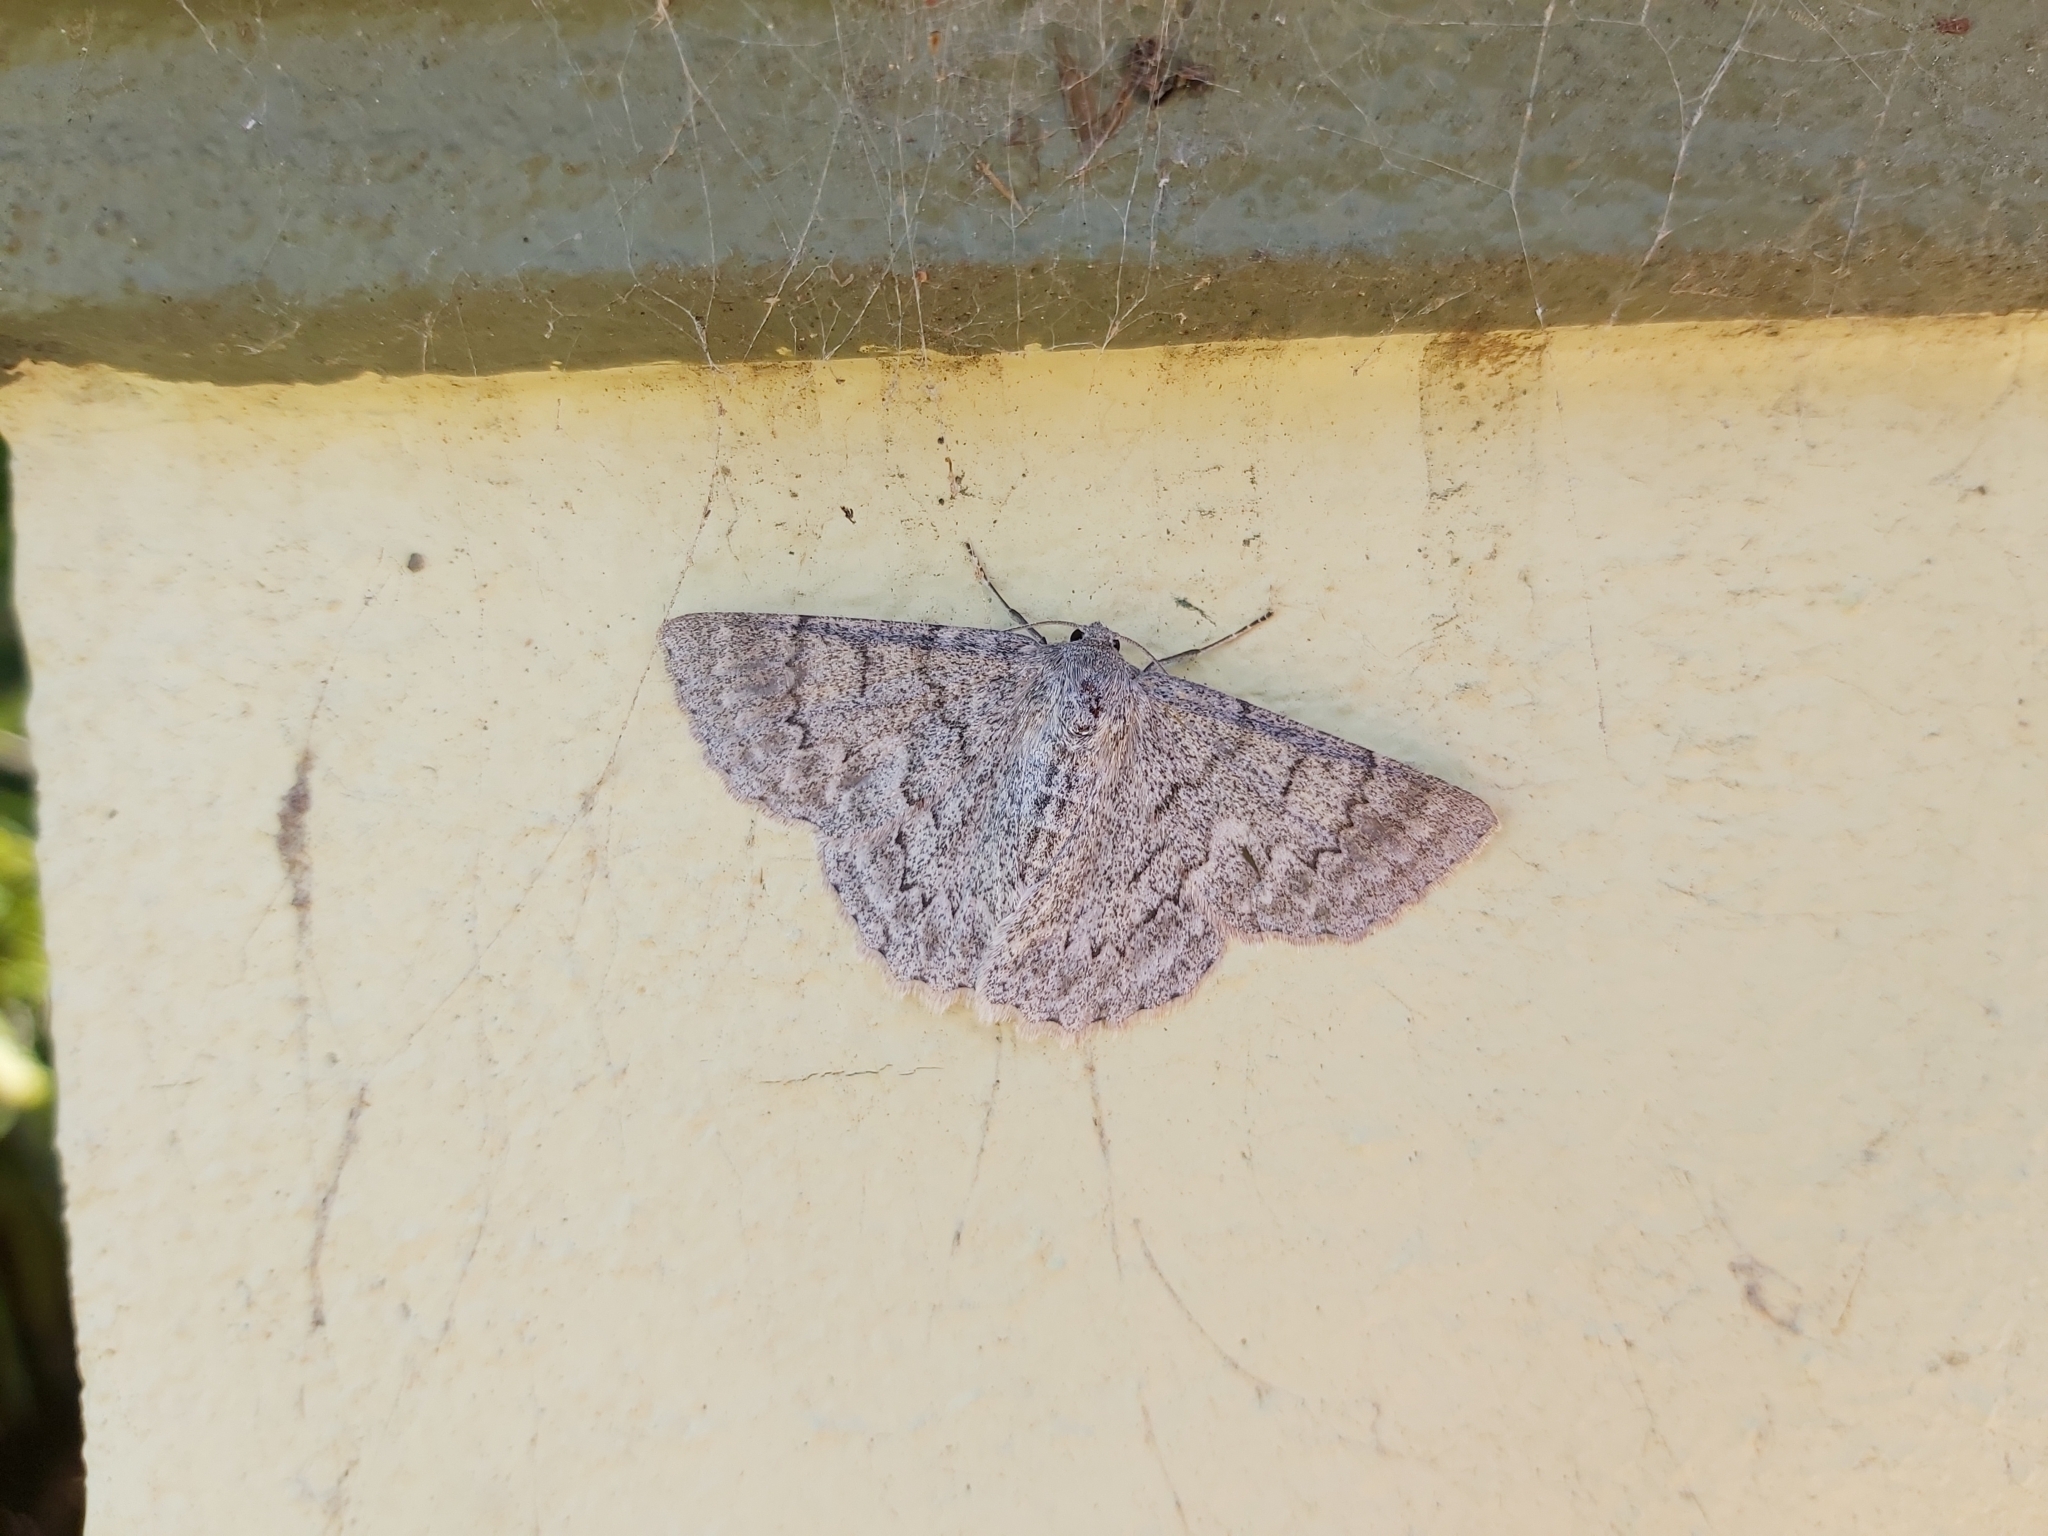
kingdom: Animalia
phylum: Arthropoda
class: Insecta
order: Lepidoptera
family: Geometridae
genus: Crypsiphona
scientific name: Crypsiphona ocultaria
